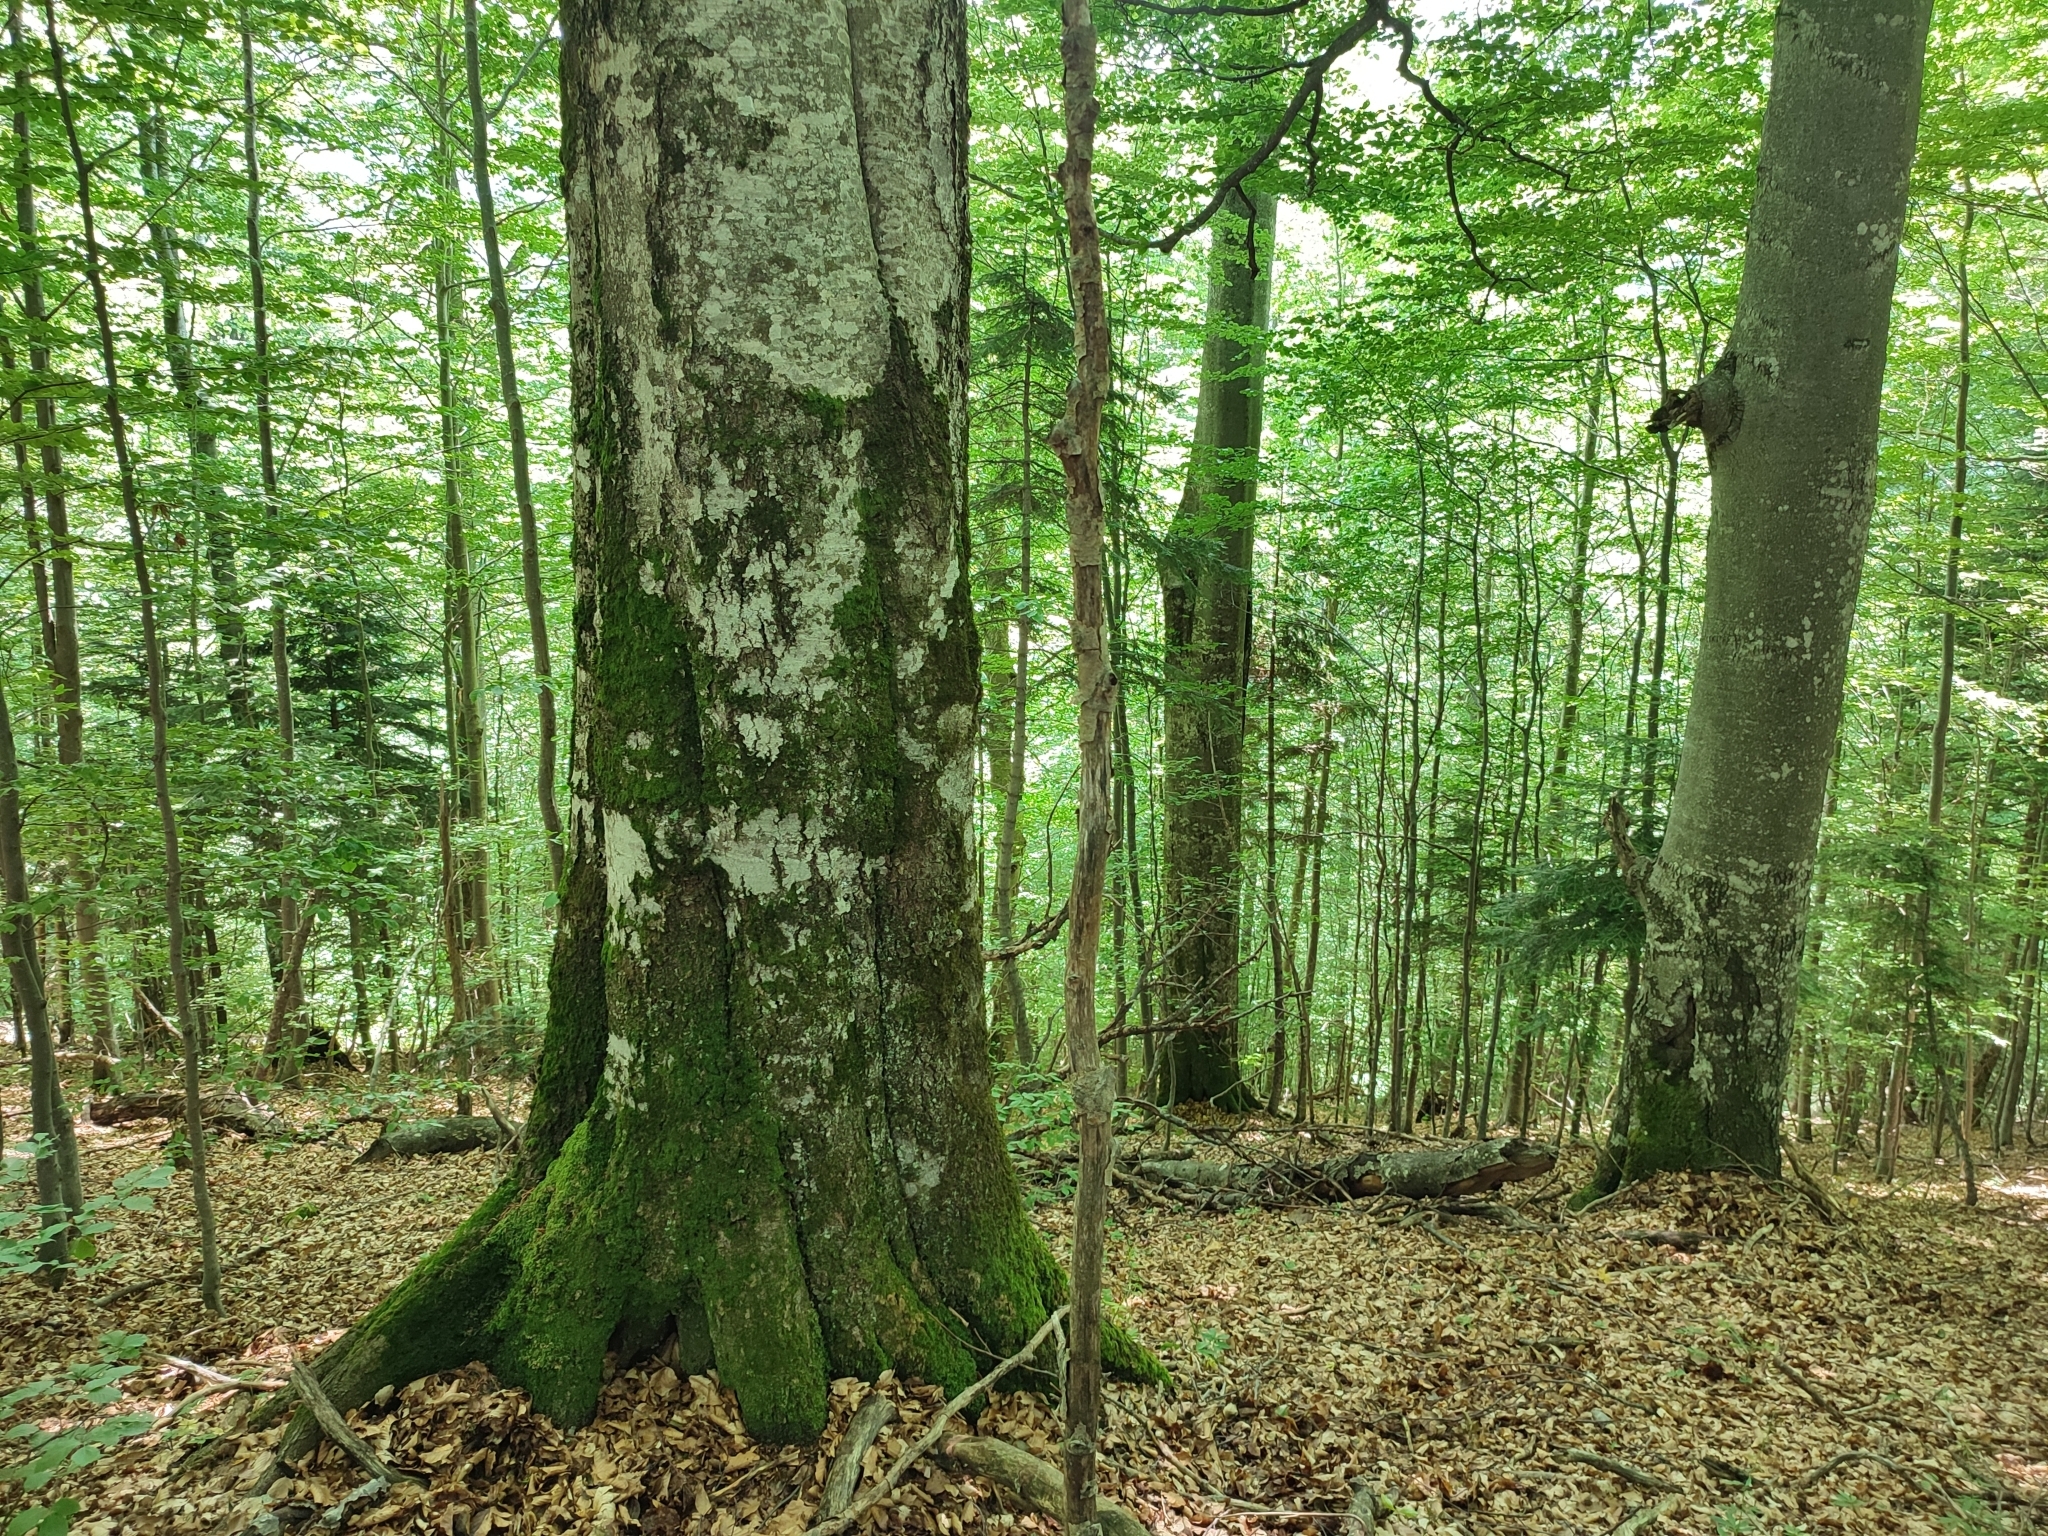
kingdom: Plantae
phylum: Tracheophyta
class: Magnoliopsida
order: Fagales
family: Fagaceae
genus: Fagus
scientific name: Fagus sylvatica
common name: Beech
